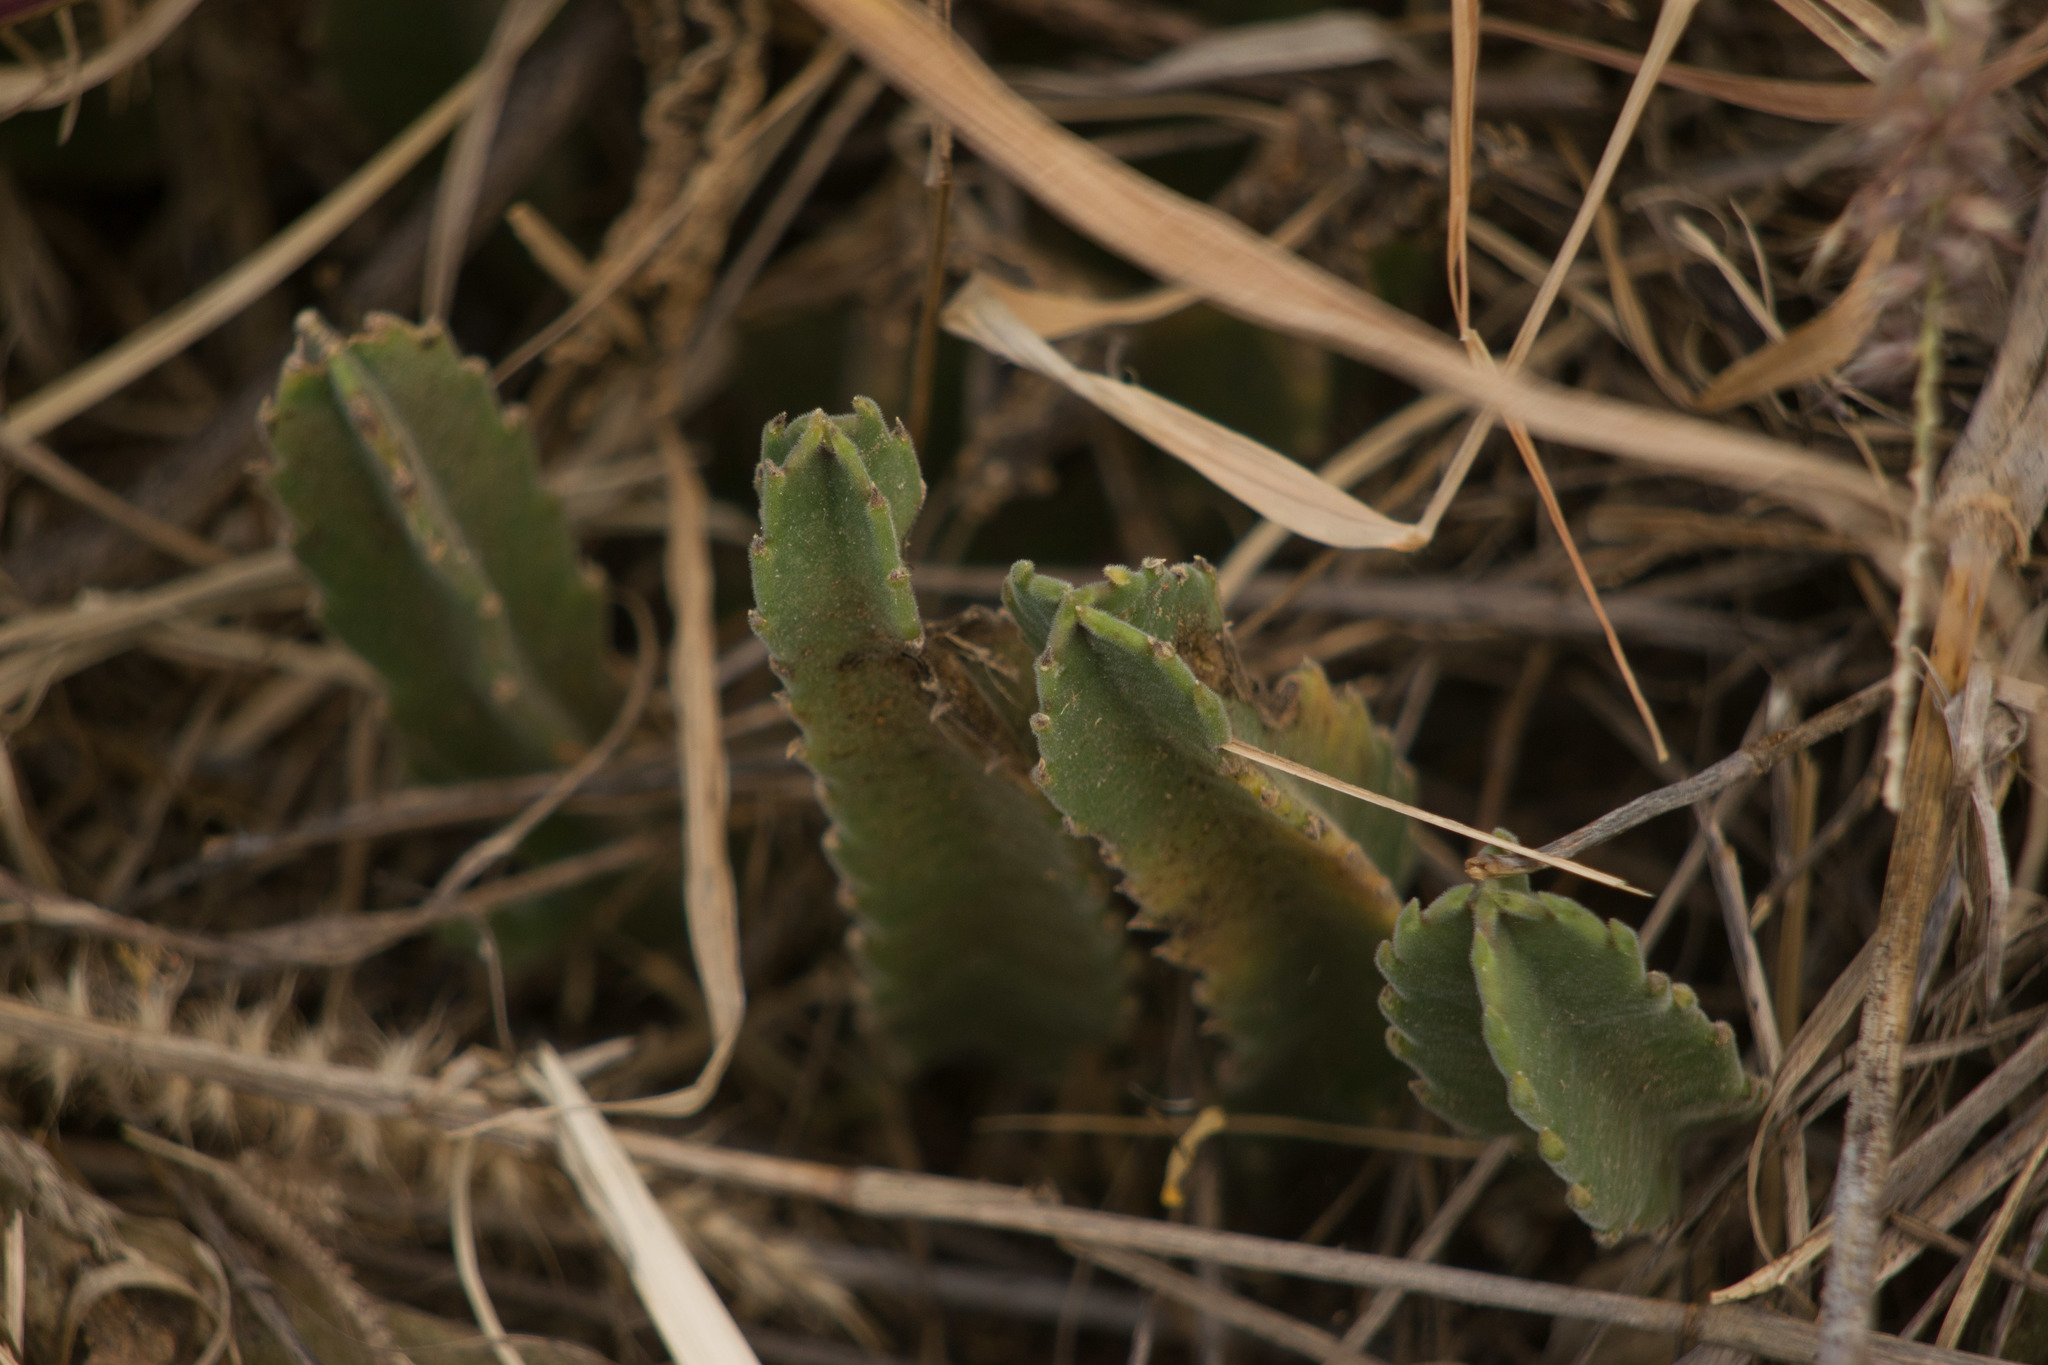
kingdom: Plantae
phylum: Tracheophyta
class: Magnoliopsida
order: Gentianales
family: Apocynaceae
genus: Ceropegia
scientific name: Ceropegia gigantea
